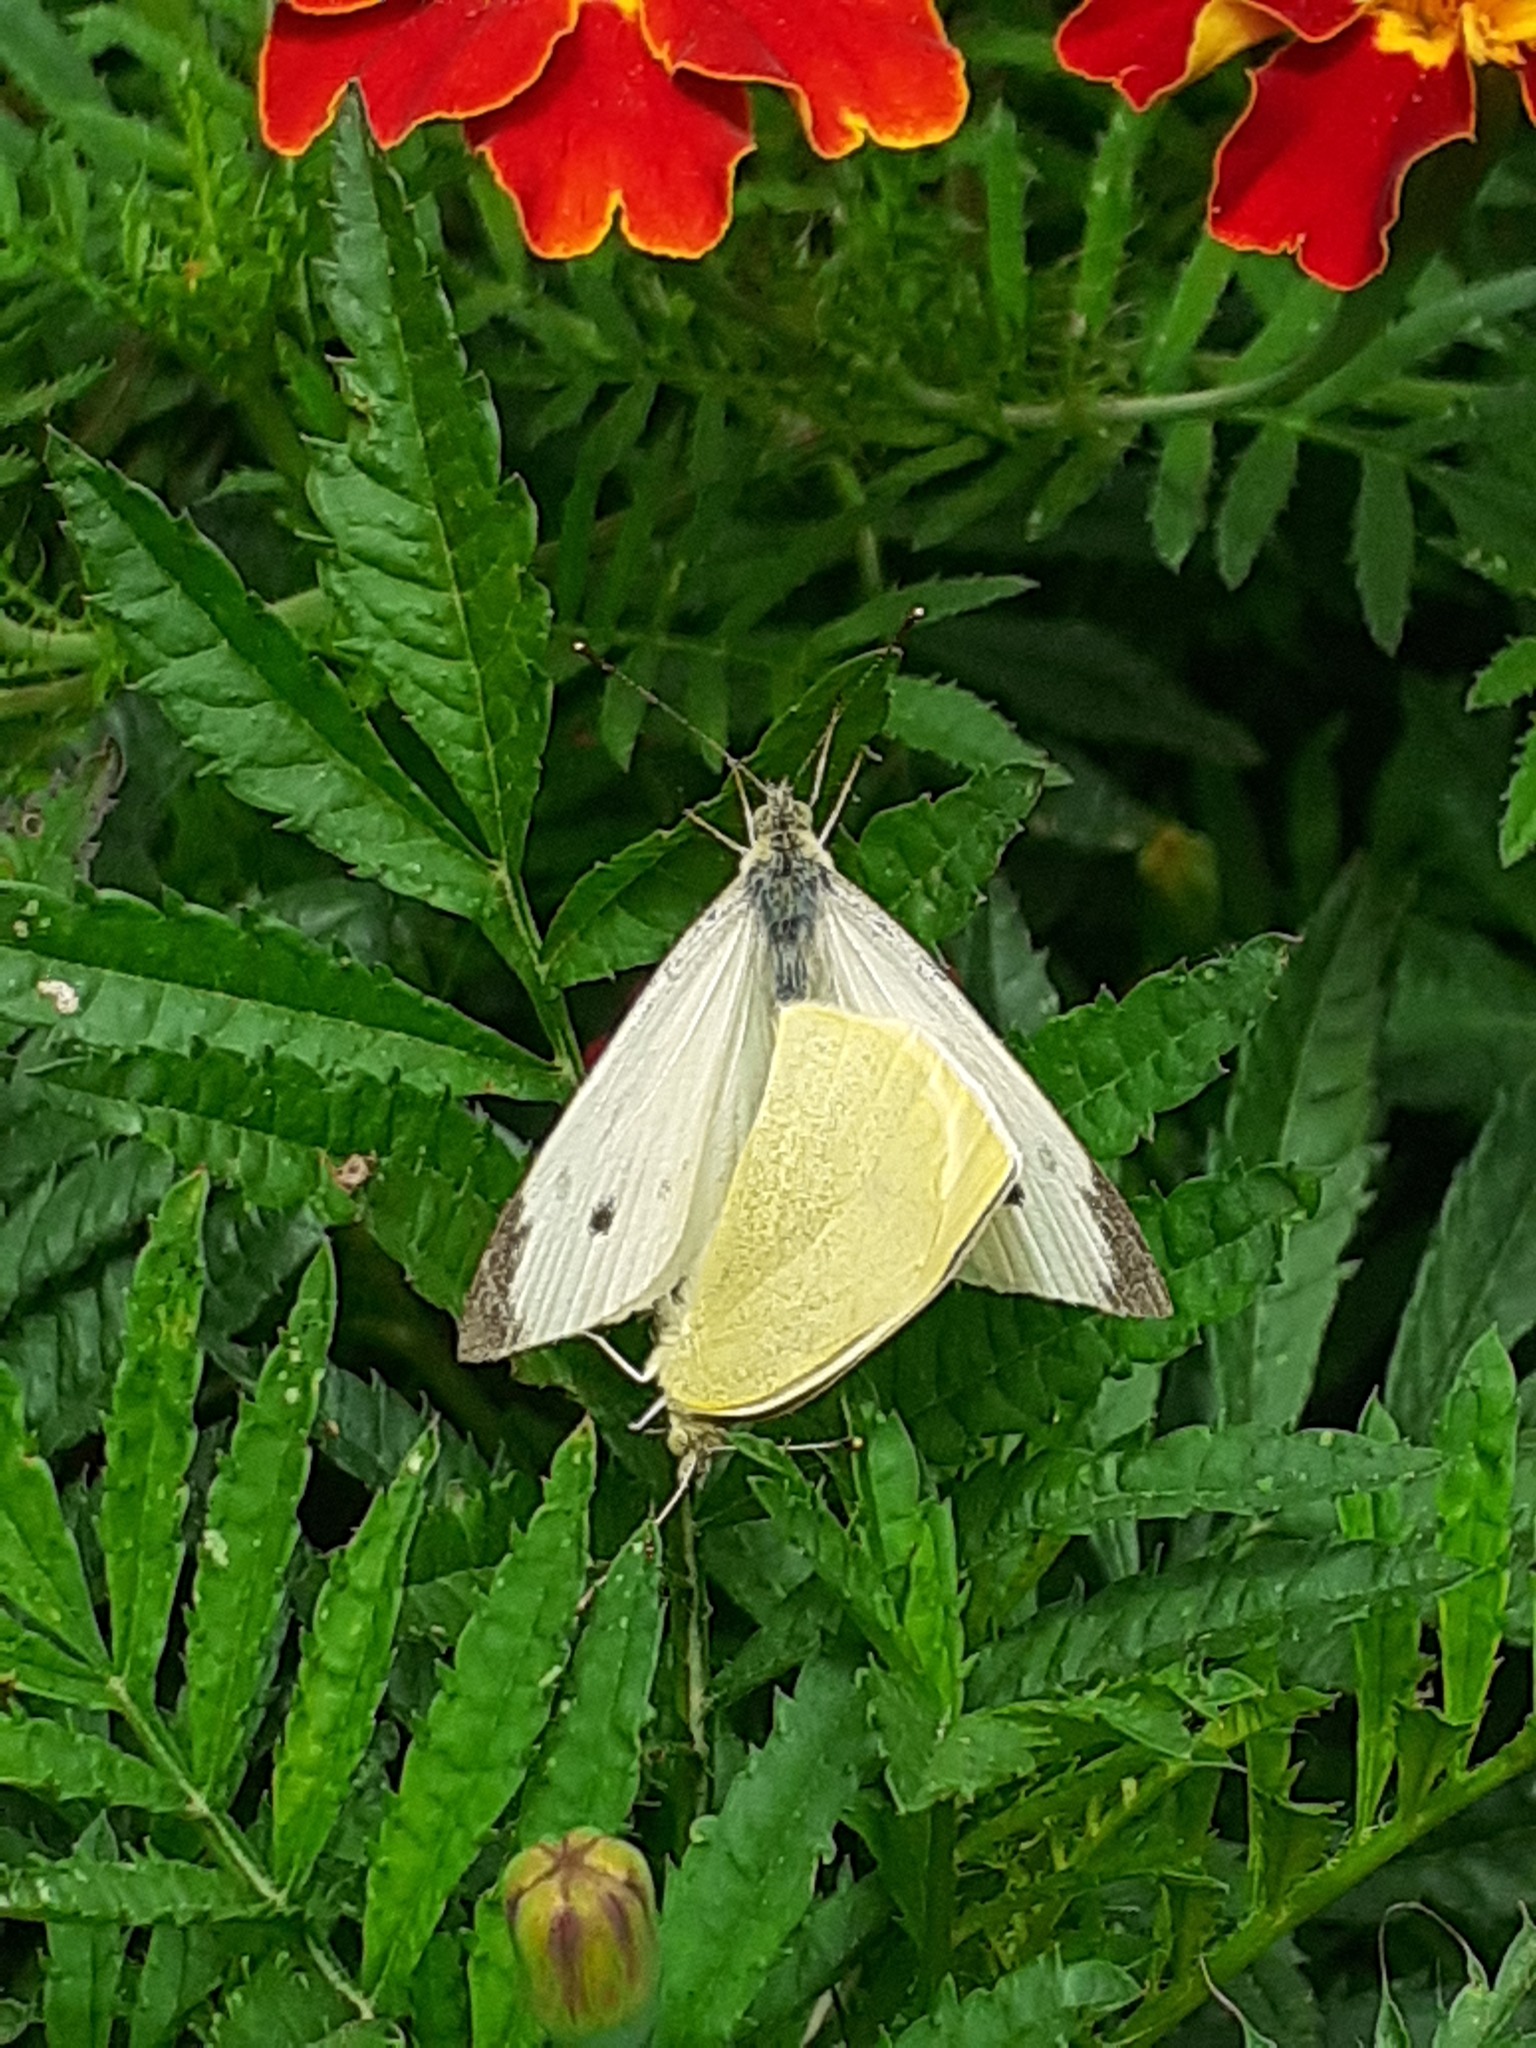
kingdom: Animalia
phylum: Arthropoda
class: Insecta
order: Lepidoptera
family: Pieridae
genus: Pieris
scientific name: Pieris rapae
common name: Small white
